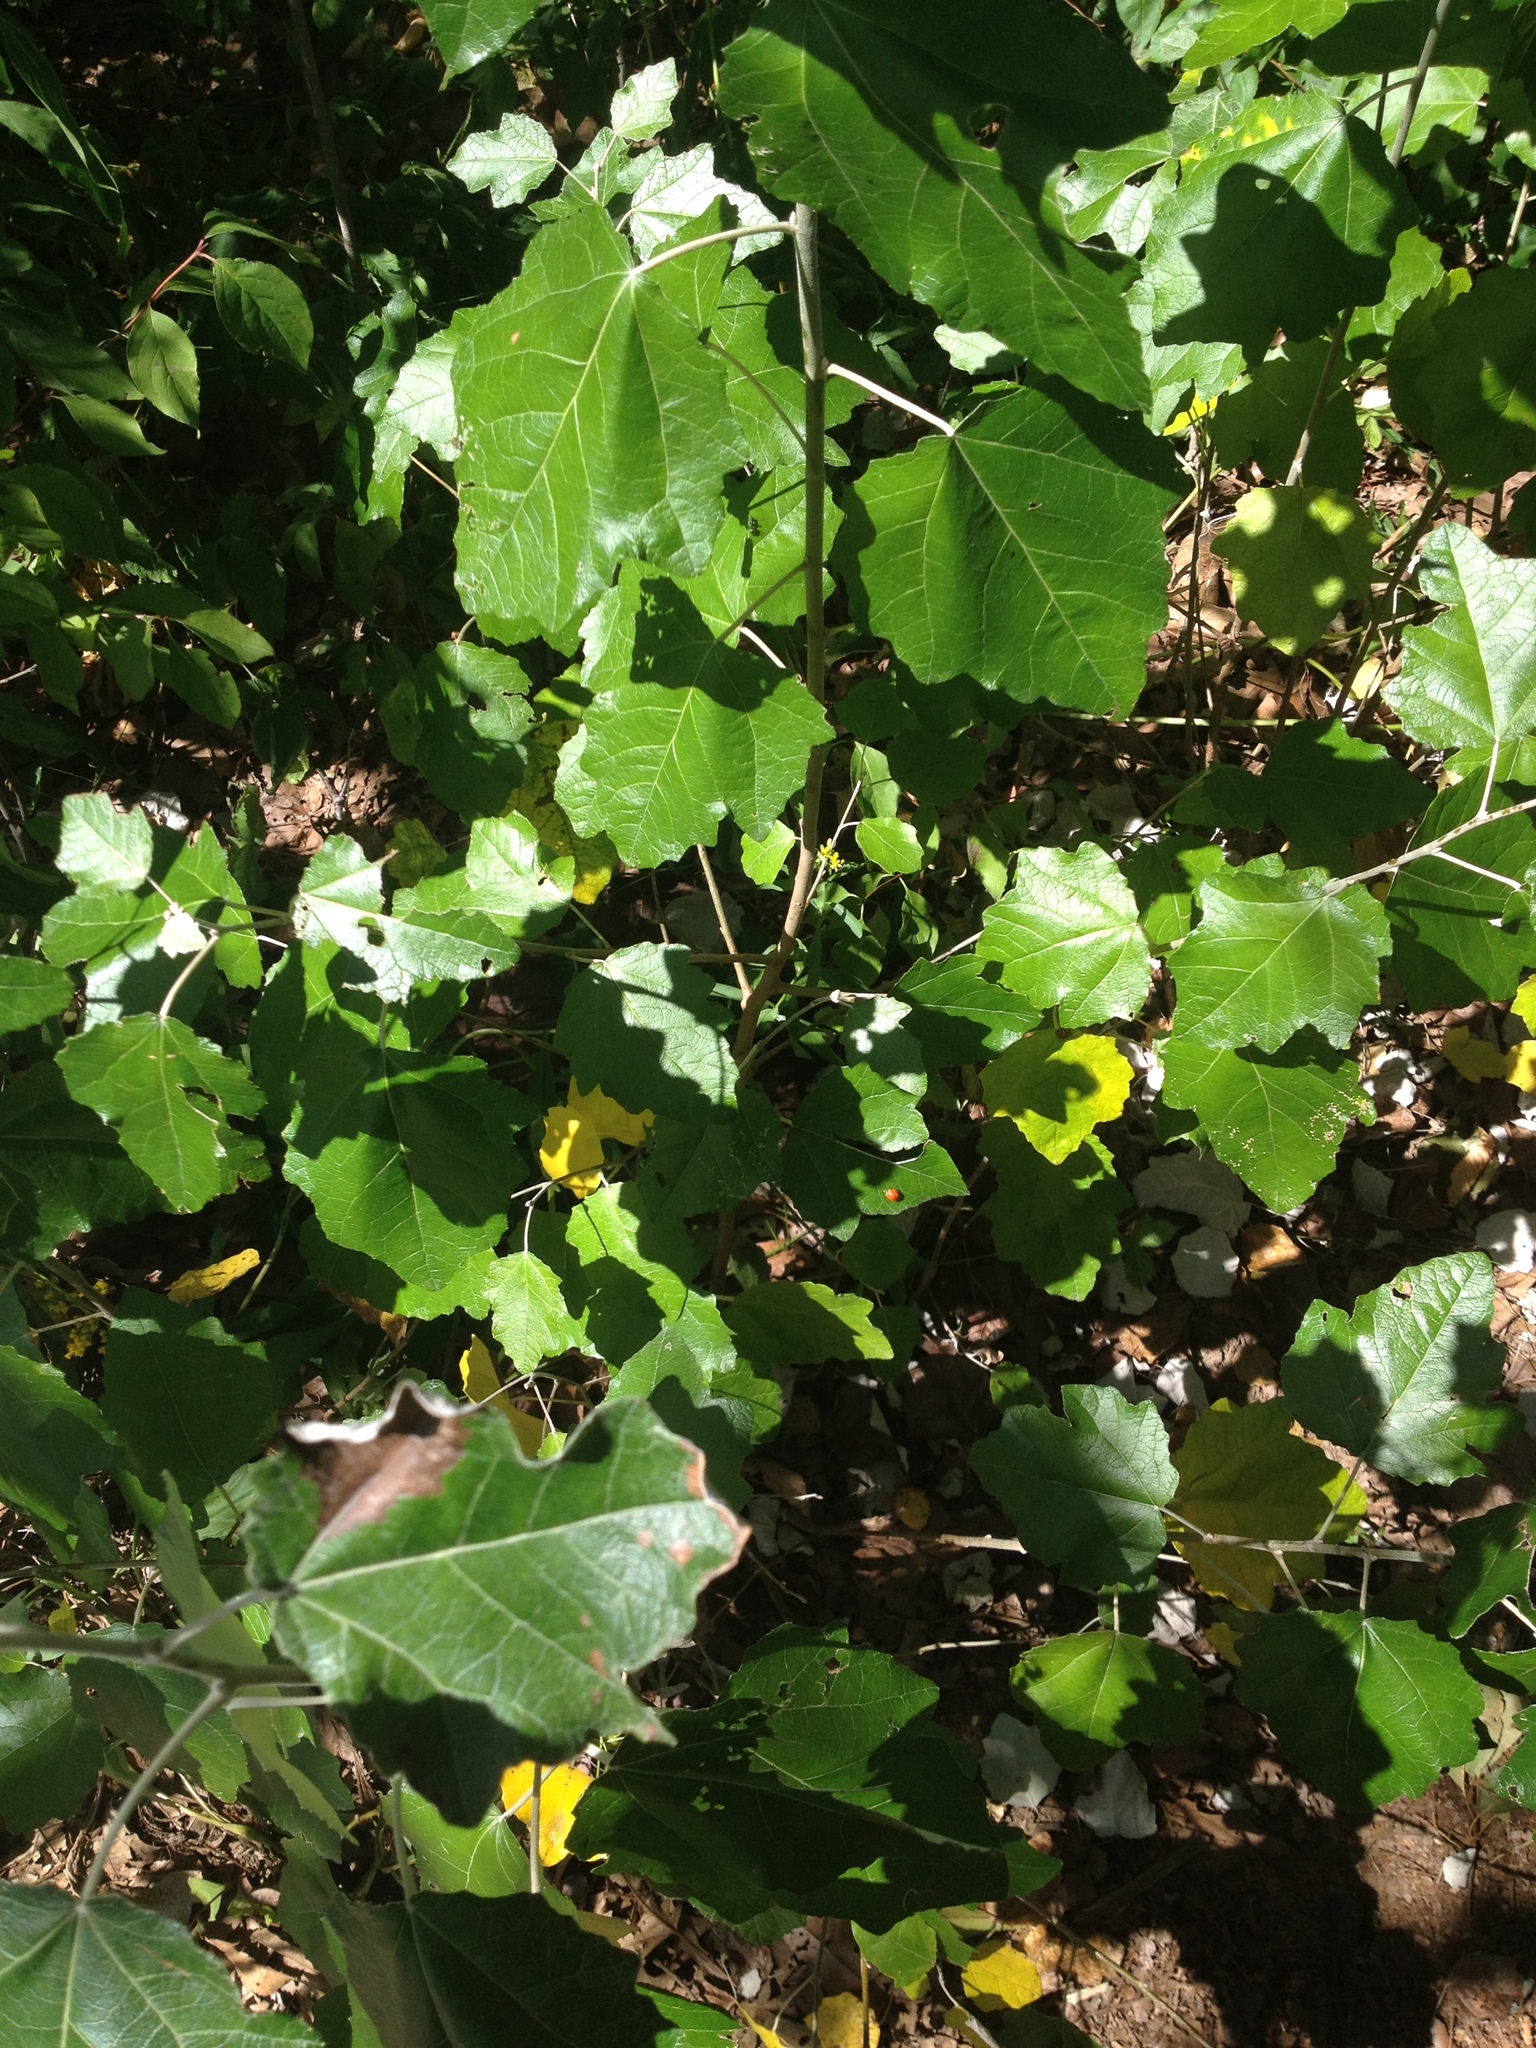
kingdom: Plantae
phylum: Tracheophyta
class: Magnoliopsida
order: Malpighiales
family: Salicaceae
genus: Populus
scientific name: Populus alba
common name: White poplar
